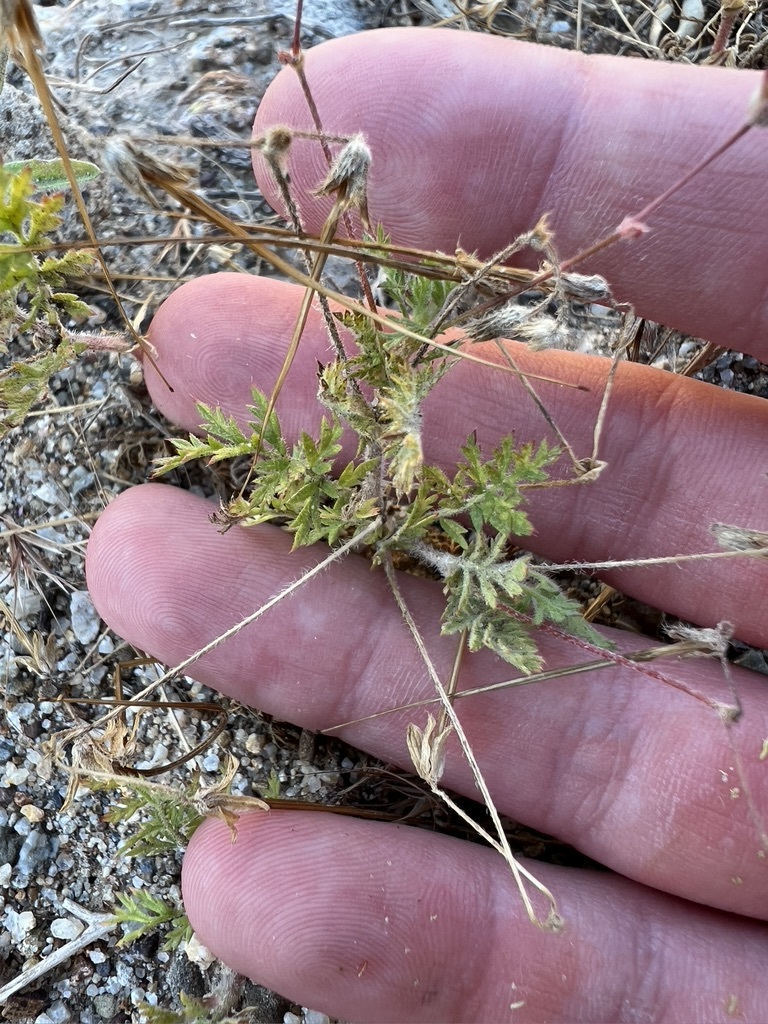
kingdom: Plantae
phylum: Tracheophyta
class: Magnoliopsida
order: Geraniales
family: Geraniaceae
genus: Erodium
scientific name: Erodium cicutarium
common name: Common stork's-bill
